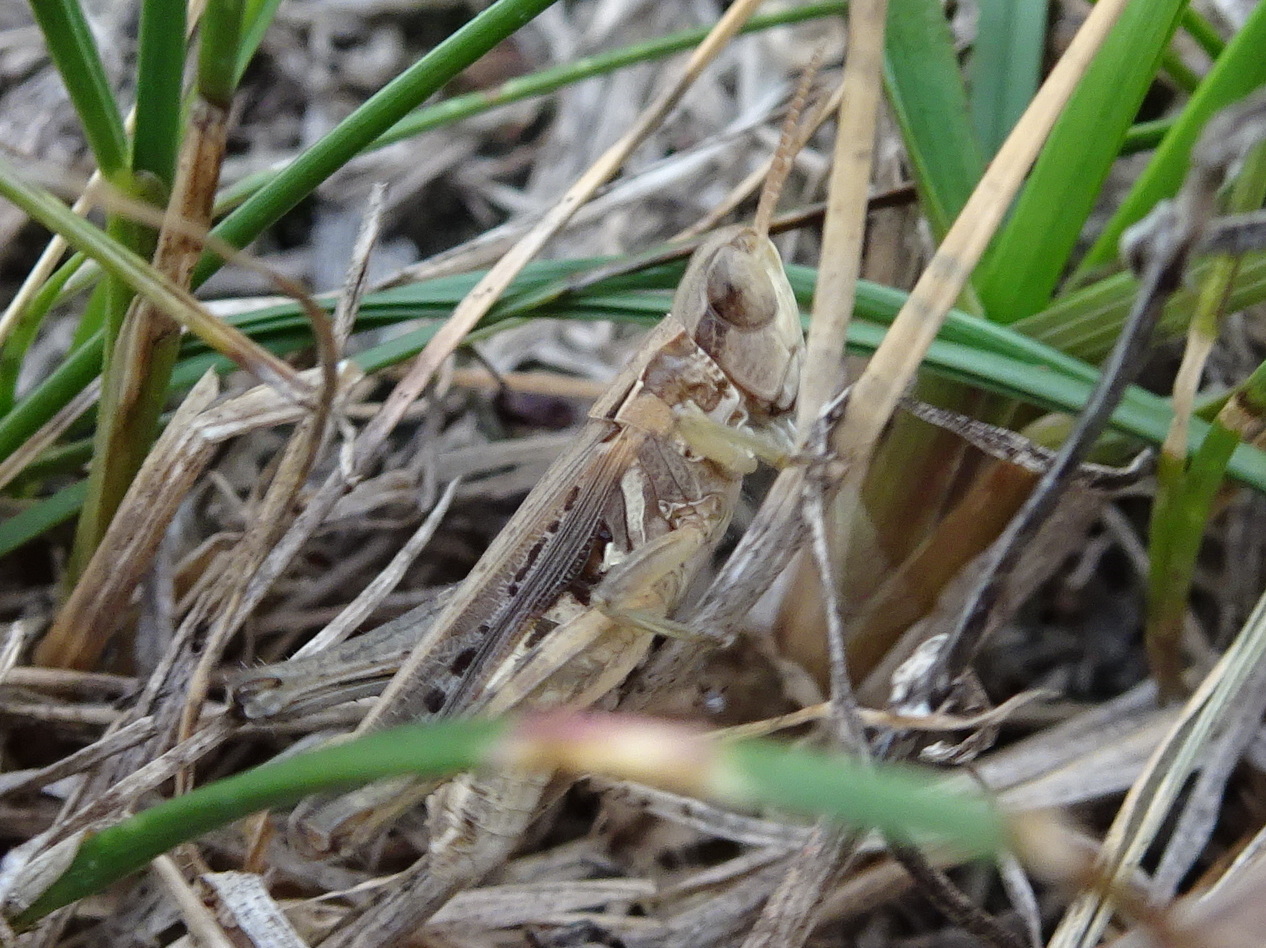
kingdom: Animalia
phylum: Arthropoda
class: Insecta
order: Orthoptera
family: Acrididae
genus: Orphulella
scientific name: Orphulella speciosa
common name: Pasture grasshopper
